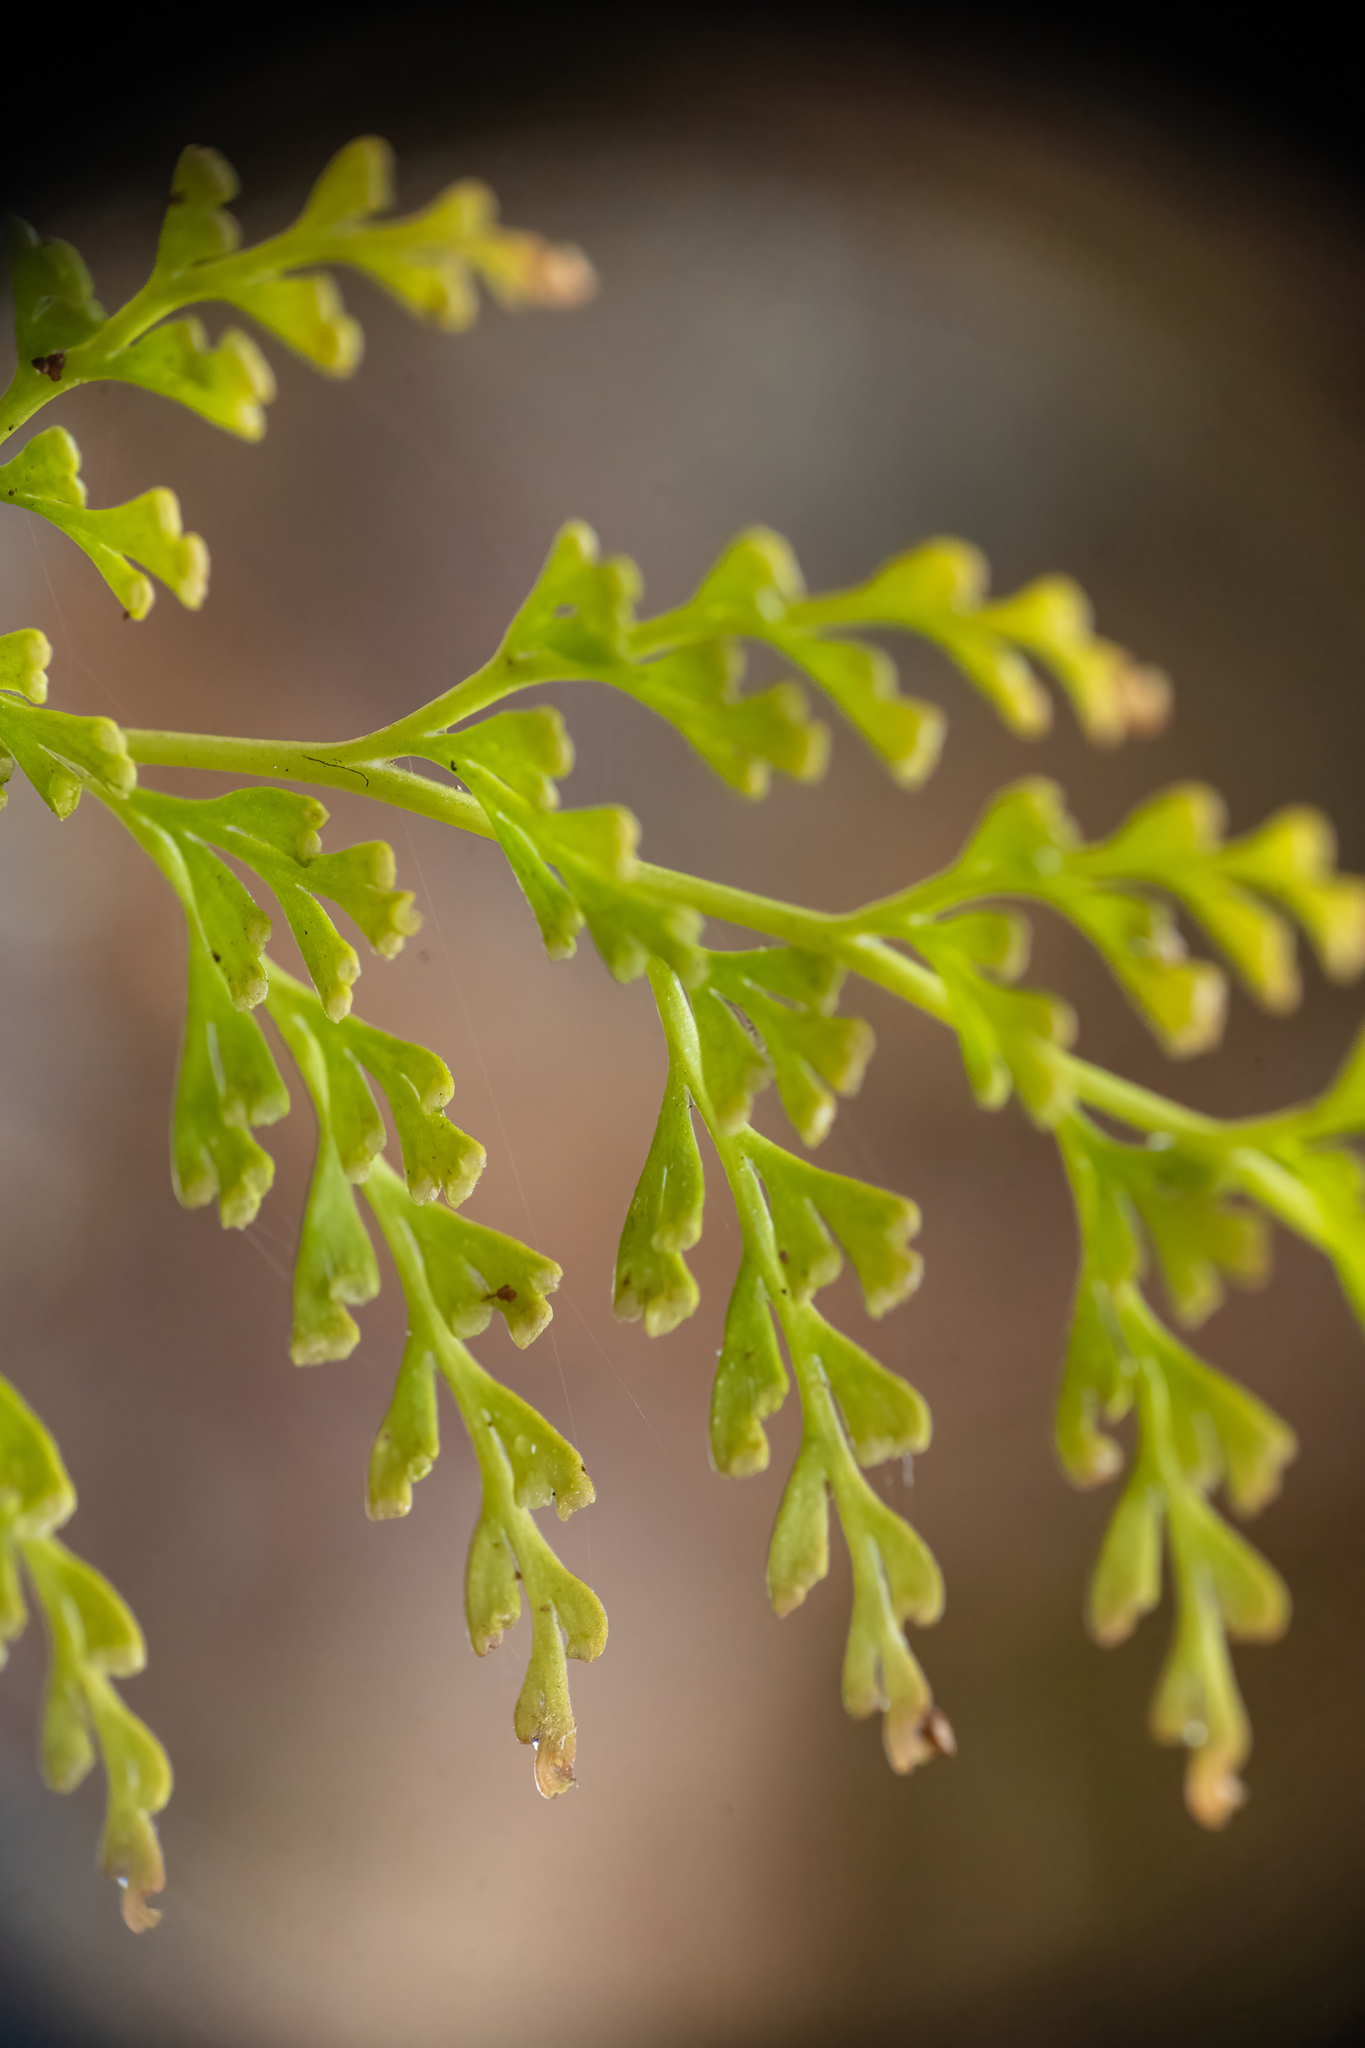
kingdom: Plantae
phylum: Tracheophyta
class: Polypodiopsida
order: Polypodiales
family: Lindsaeaceae
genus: Odontosoria
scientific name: Odontosoria krameri
